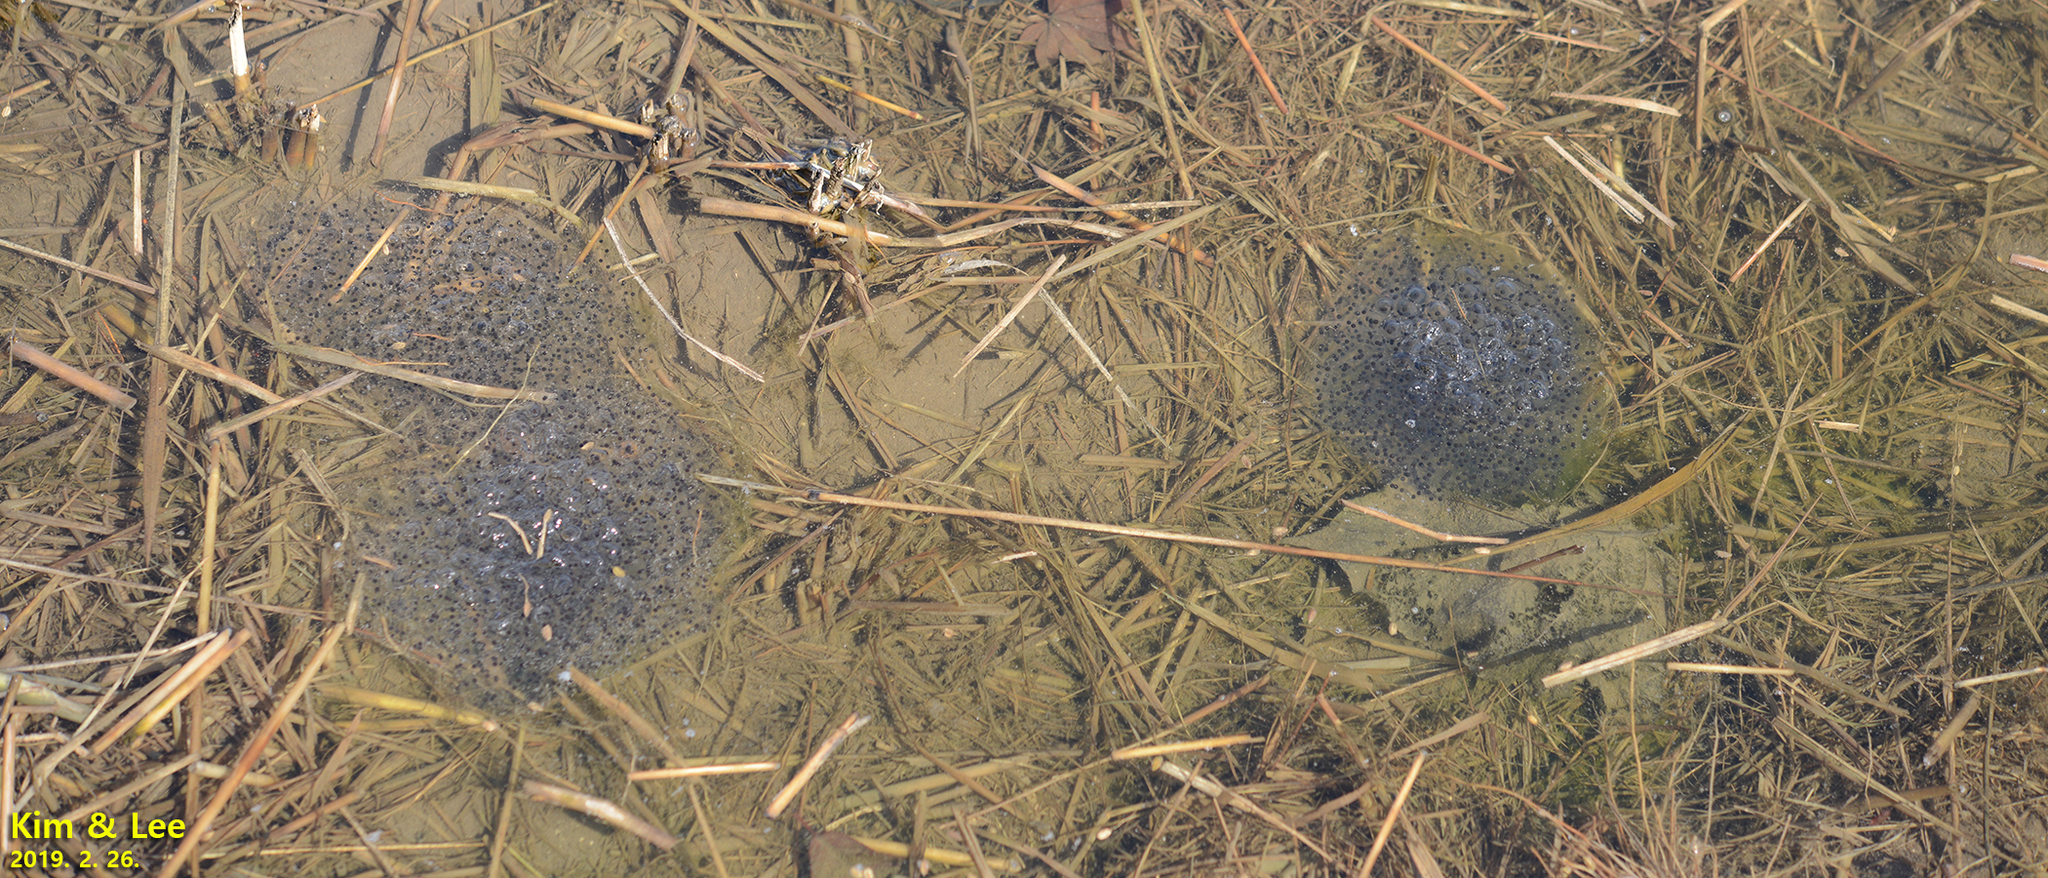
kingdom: Animalia
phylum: Chordata
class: Amphibia
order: Anura
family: Ranidae
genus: Rana
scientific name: Rana uenoi
